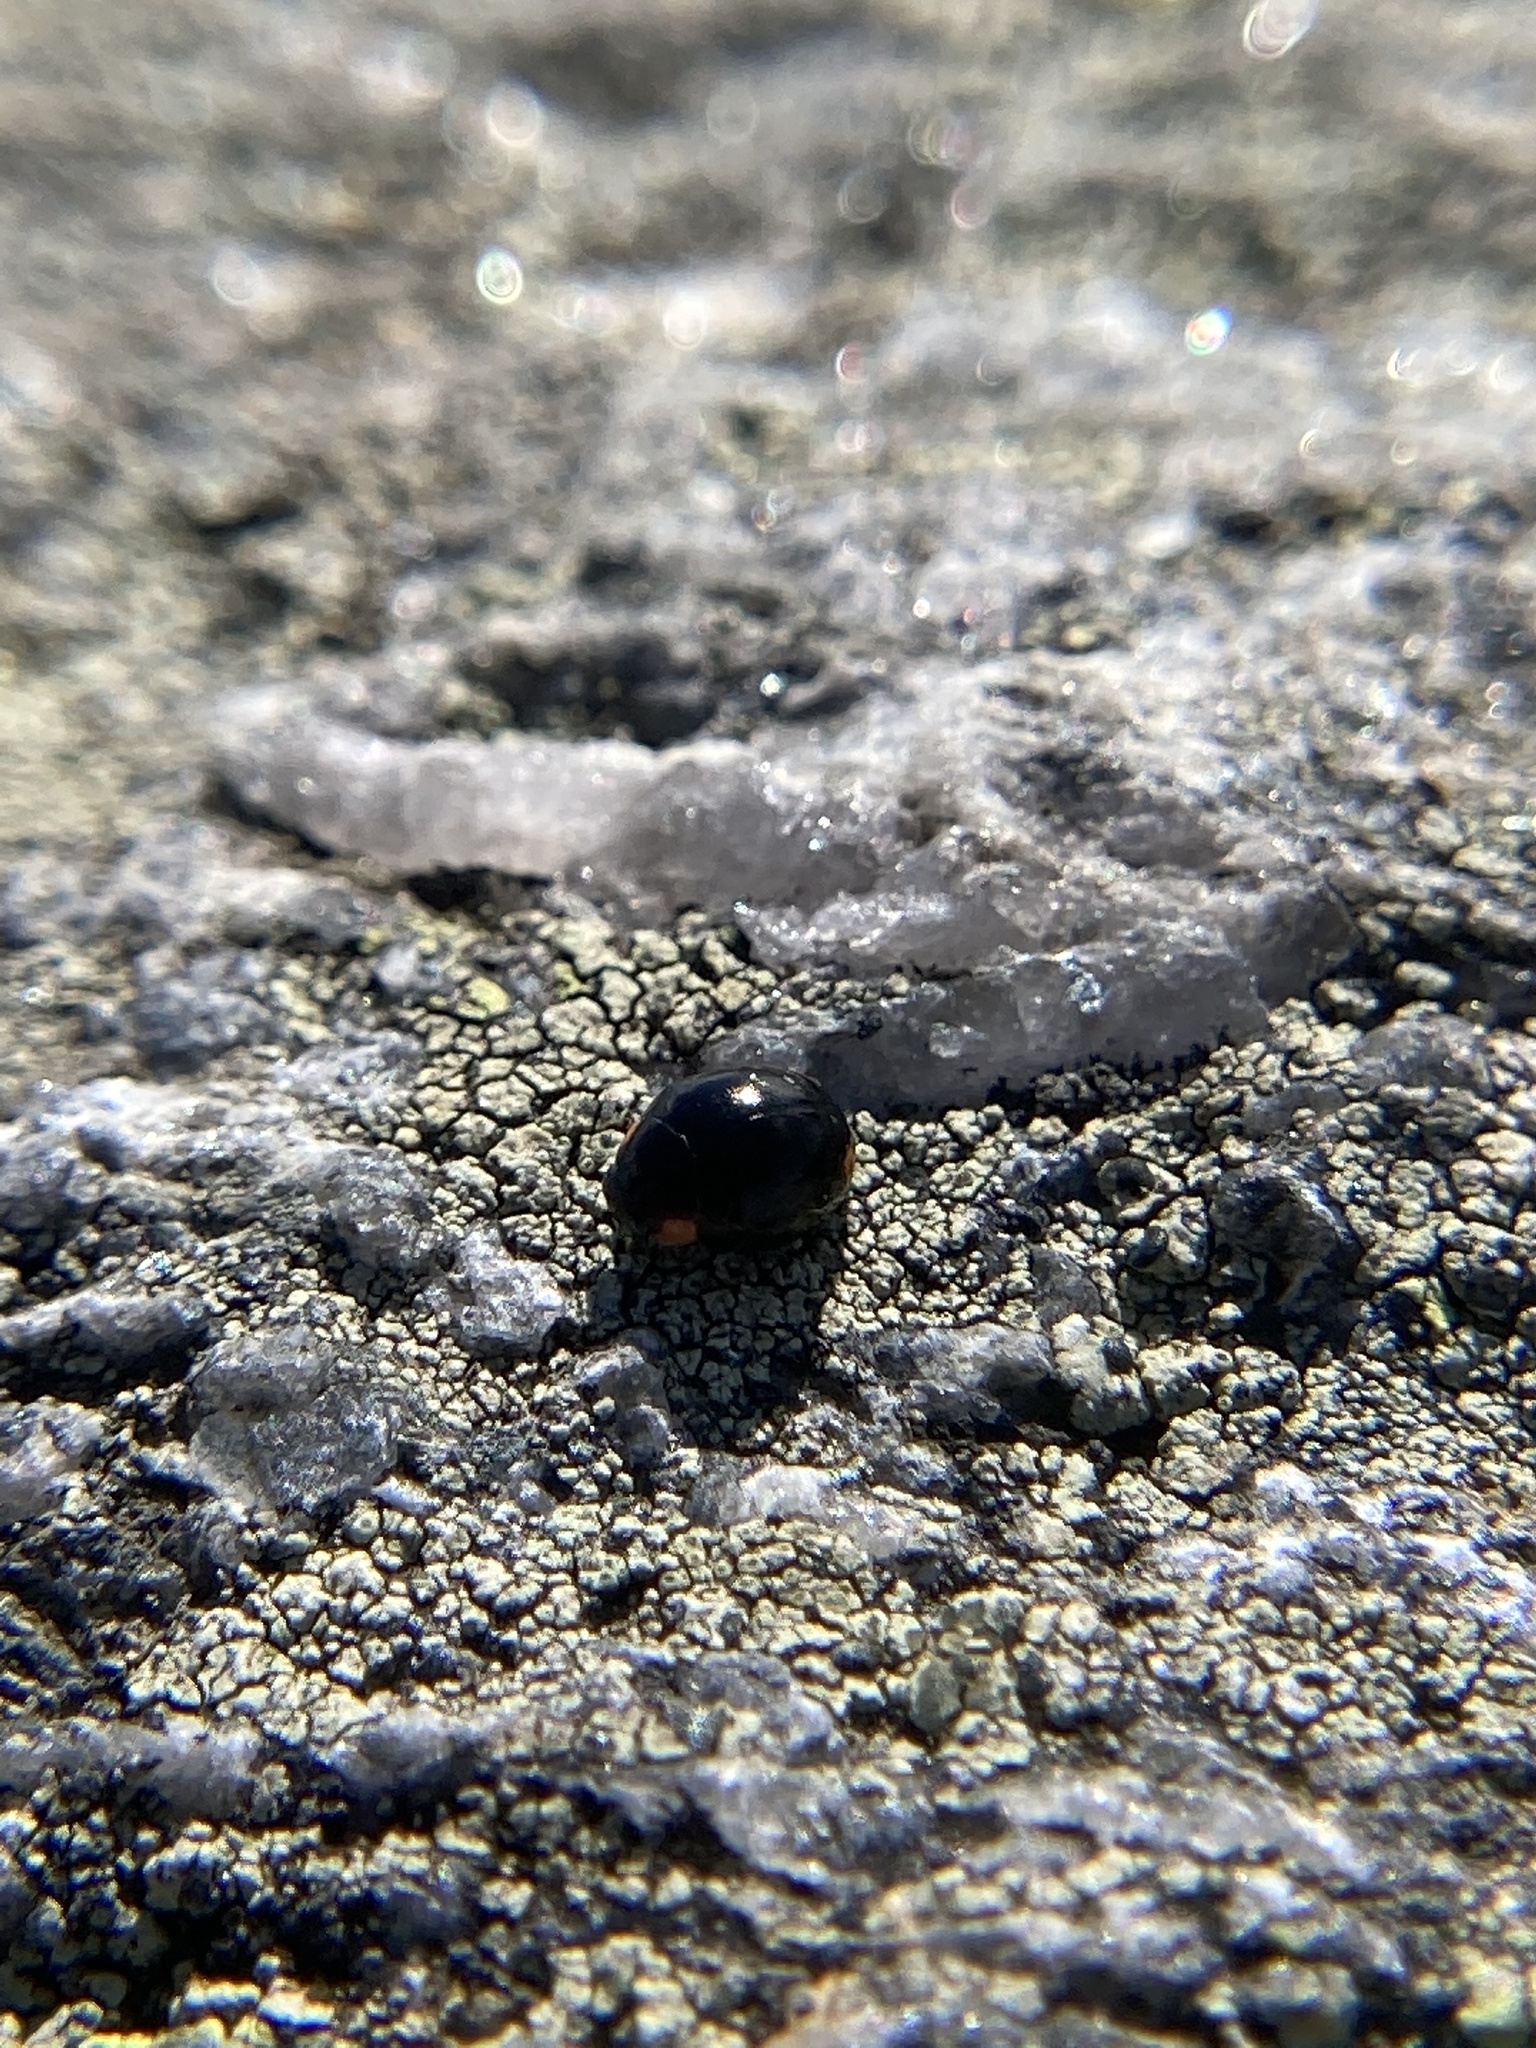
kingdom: Animalia
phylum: Arthropoda
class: Insecta
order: Coleoptera
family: Coccinellidae
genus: Hyperaspis
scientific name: Hyperaspis bigeminata
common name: Bigeminate sigil lady beetle
